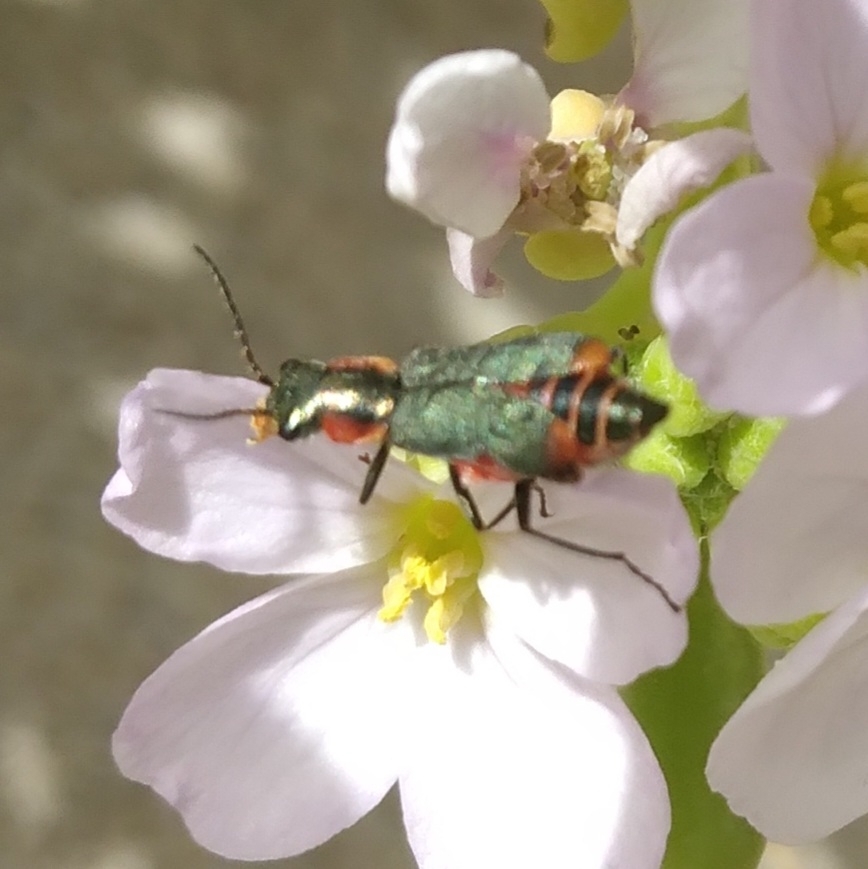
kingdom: Animalia
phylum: Arthropoda
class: Insecta
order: Coleoptera
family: Malachiidae
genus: Clanoptilus
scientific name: Clanoptilus marginellus
